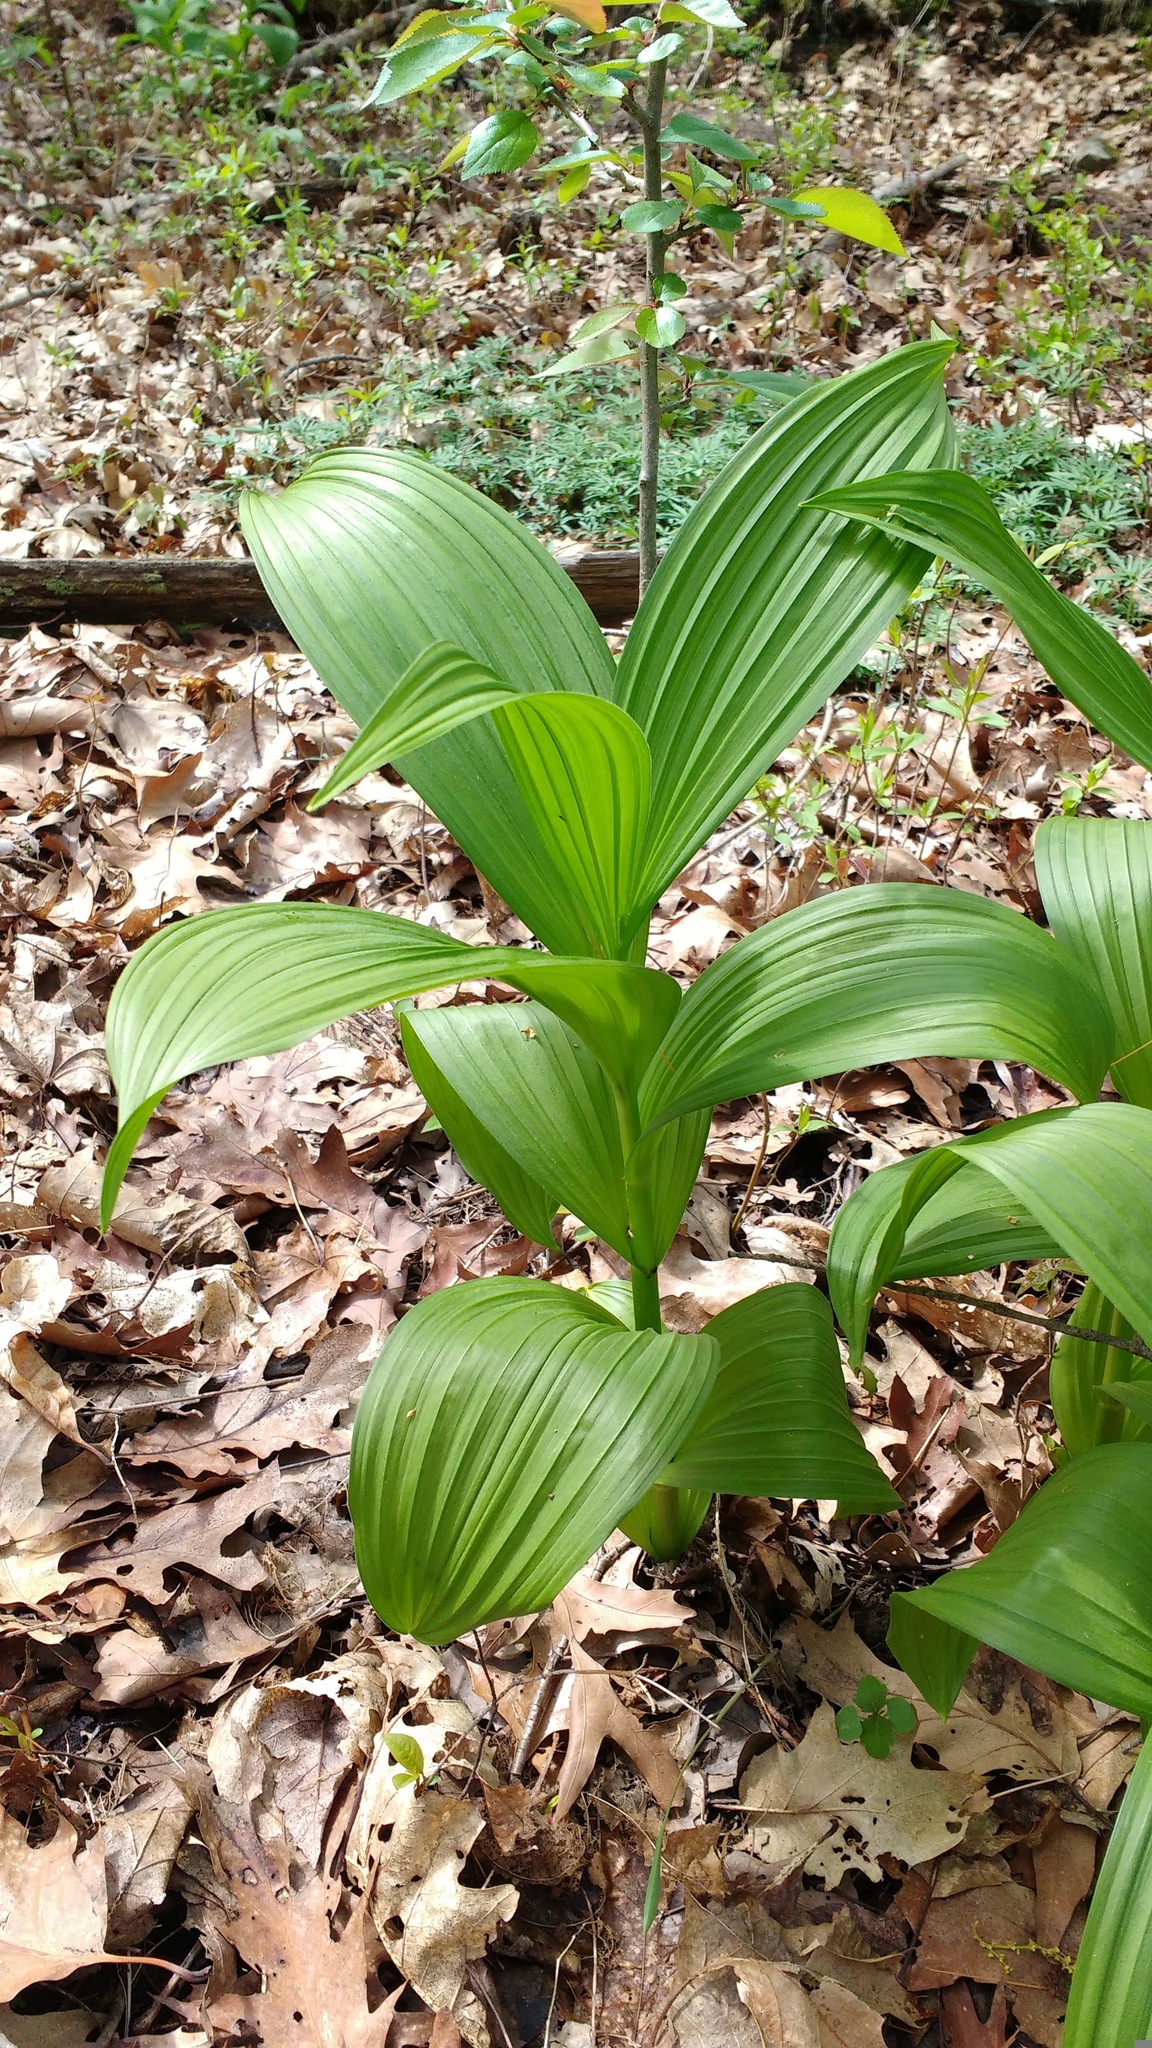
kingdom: Plantae
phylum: Tracheophyta
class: Liliopsida
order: Liliales
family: Melanthiaceae
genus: Veratrum
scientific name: Veratrum viride
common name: American false hellebore
